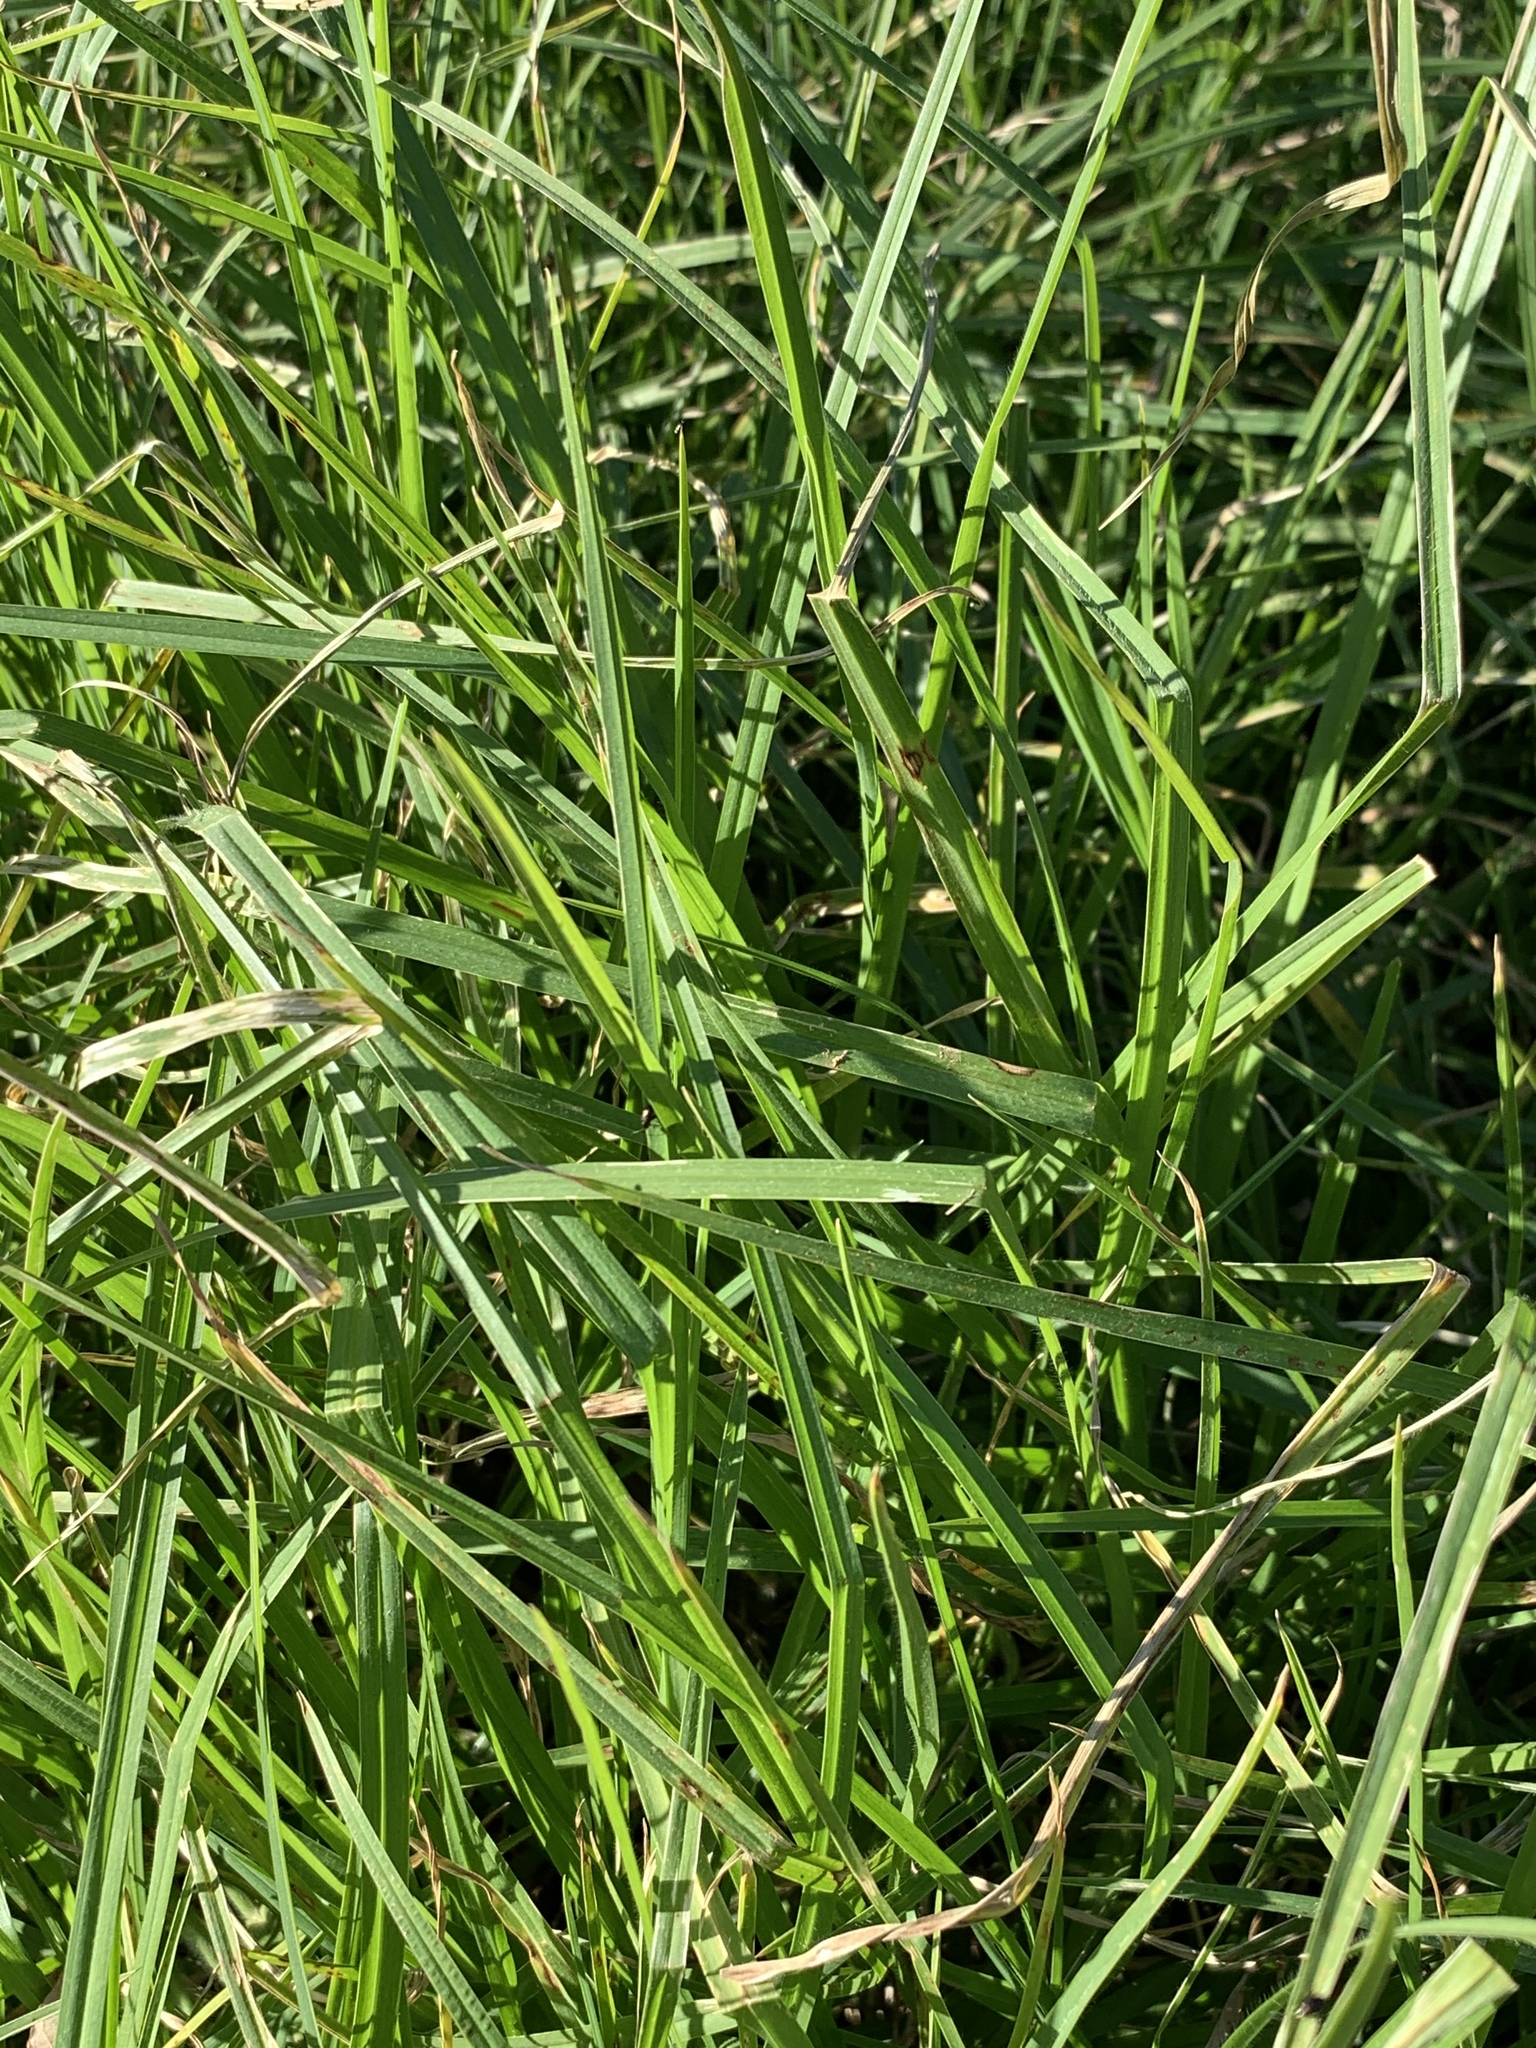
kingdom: Plantae
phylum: Tracheophyta
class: Liliopsida
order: Poales
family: Poaceae
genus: Cenchrus
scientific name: Cenchrus clandestinus
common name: Kikuyugrass
